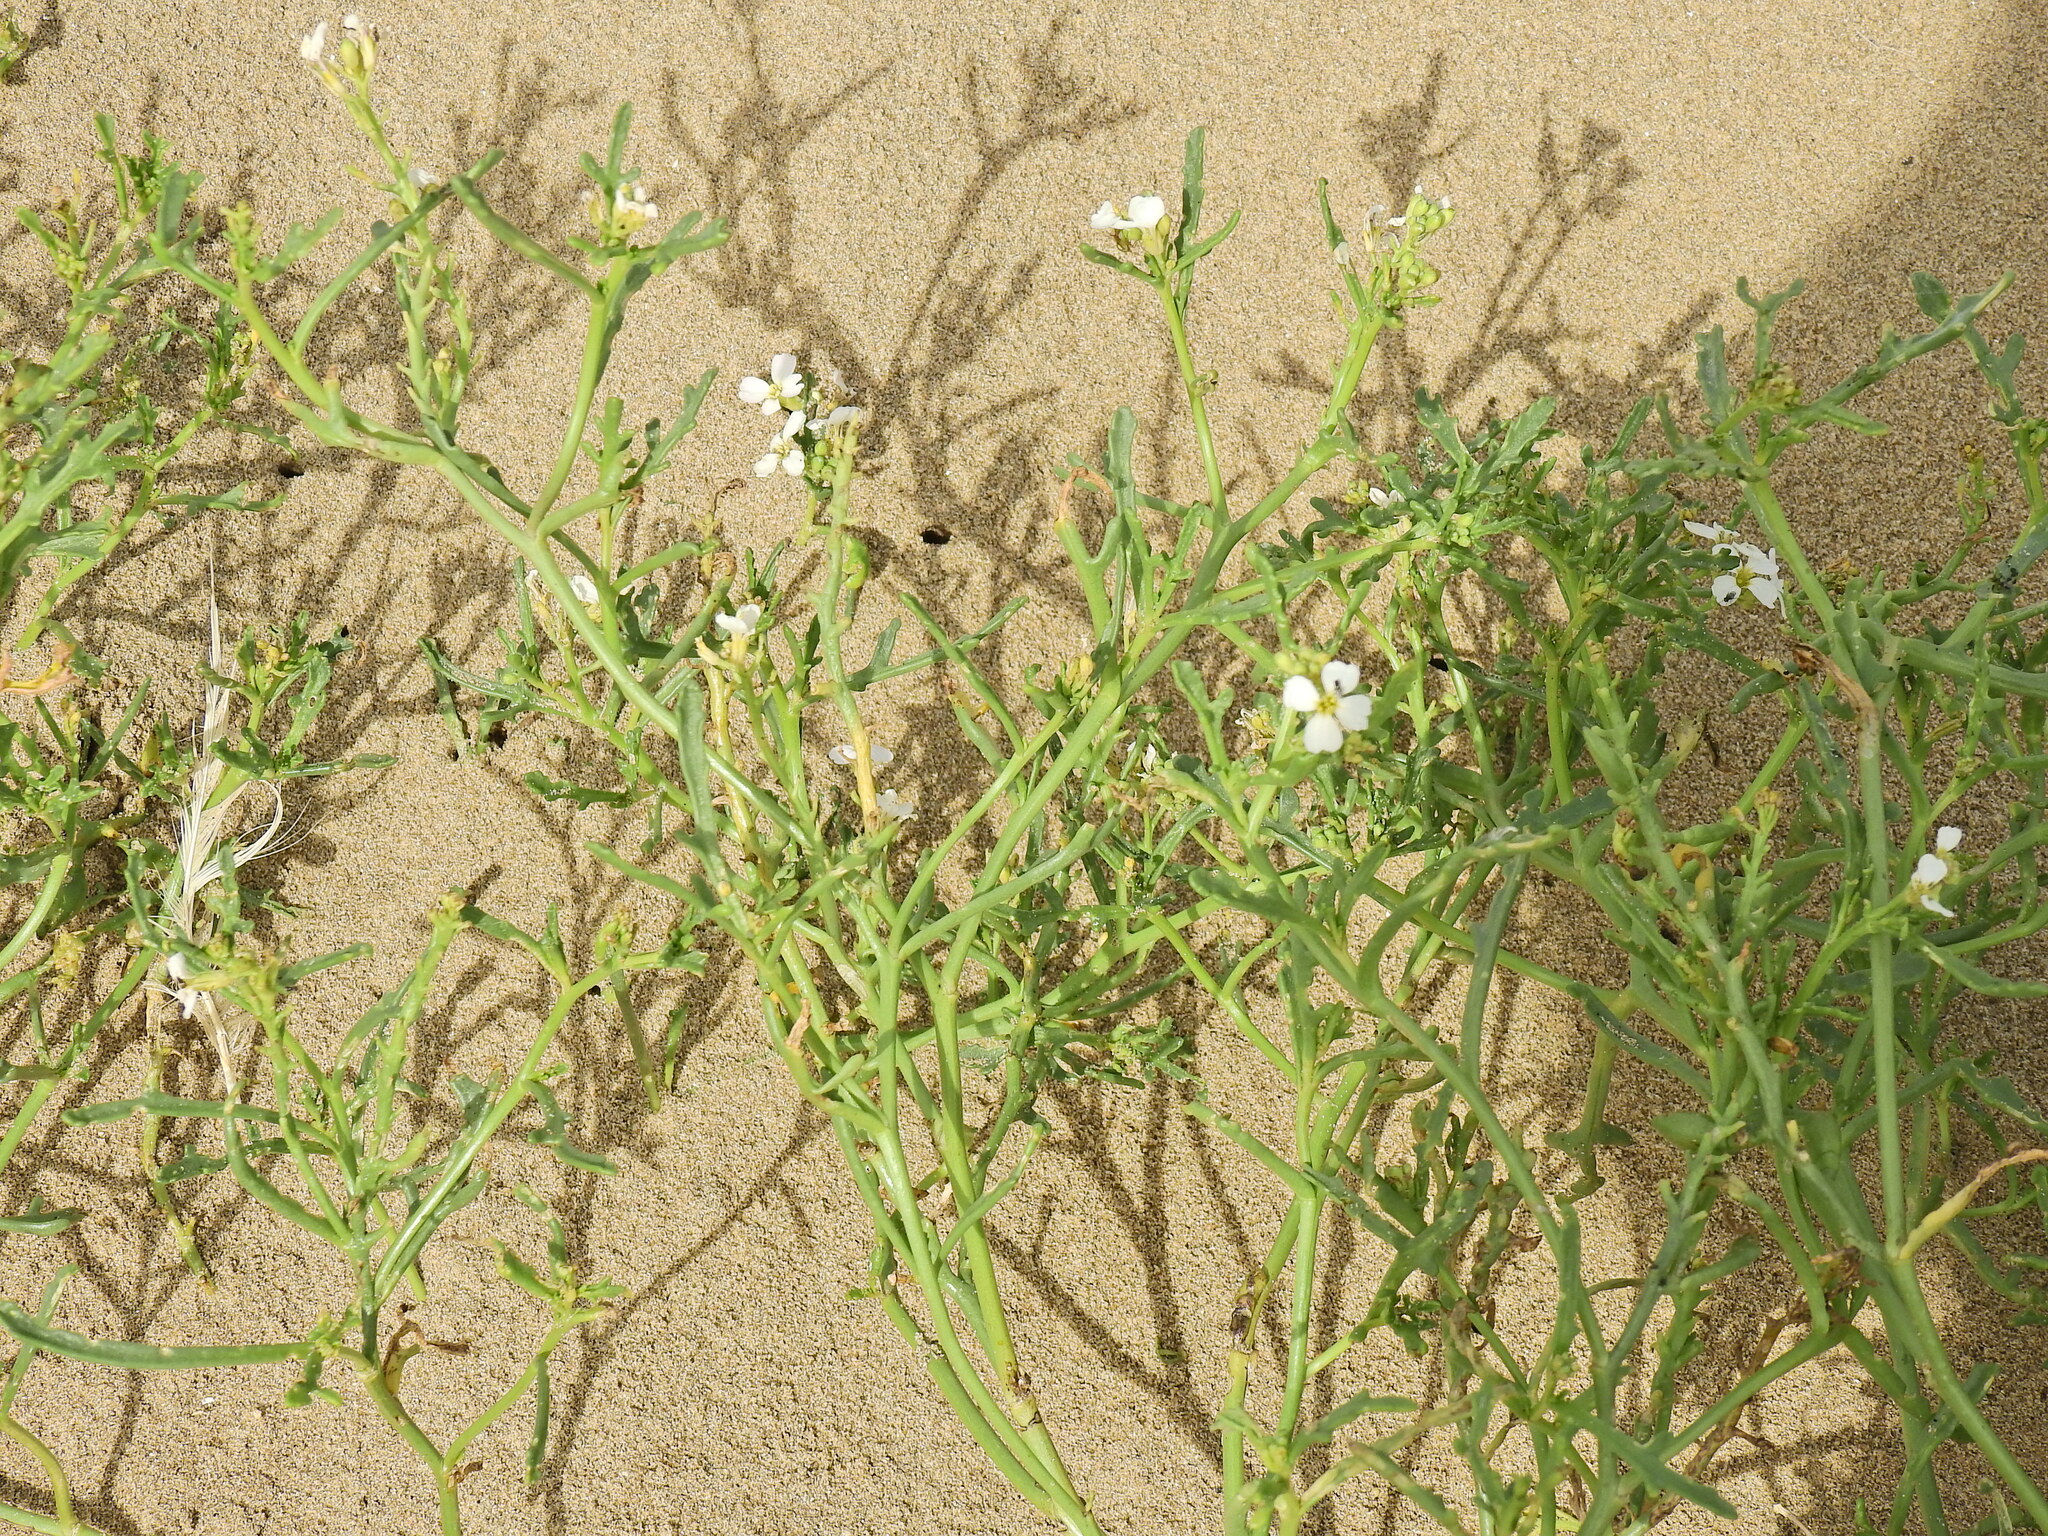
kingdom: Plantae
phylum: Tracheophyta
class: Magnoliopsida
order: Brassicales
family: Brassicaceae
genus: Cakile
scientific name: Cakile maritima
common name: Sea rocket
